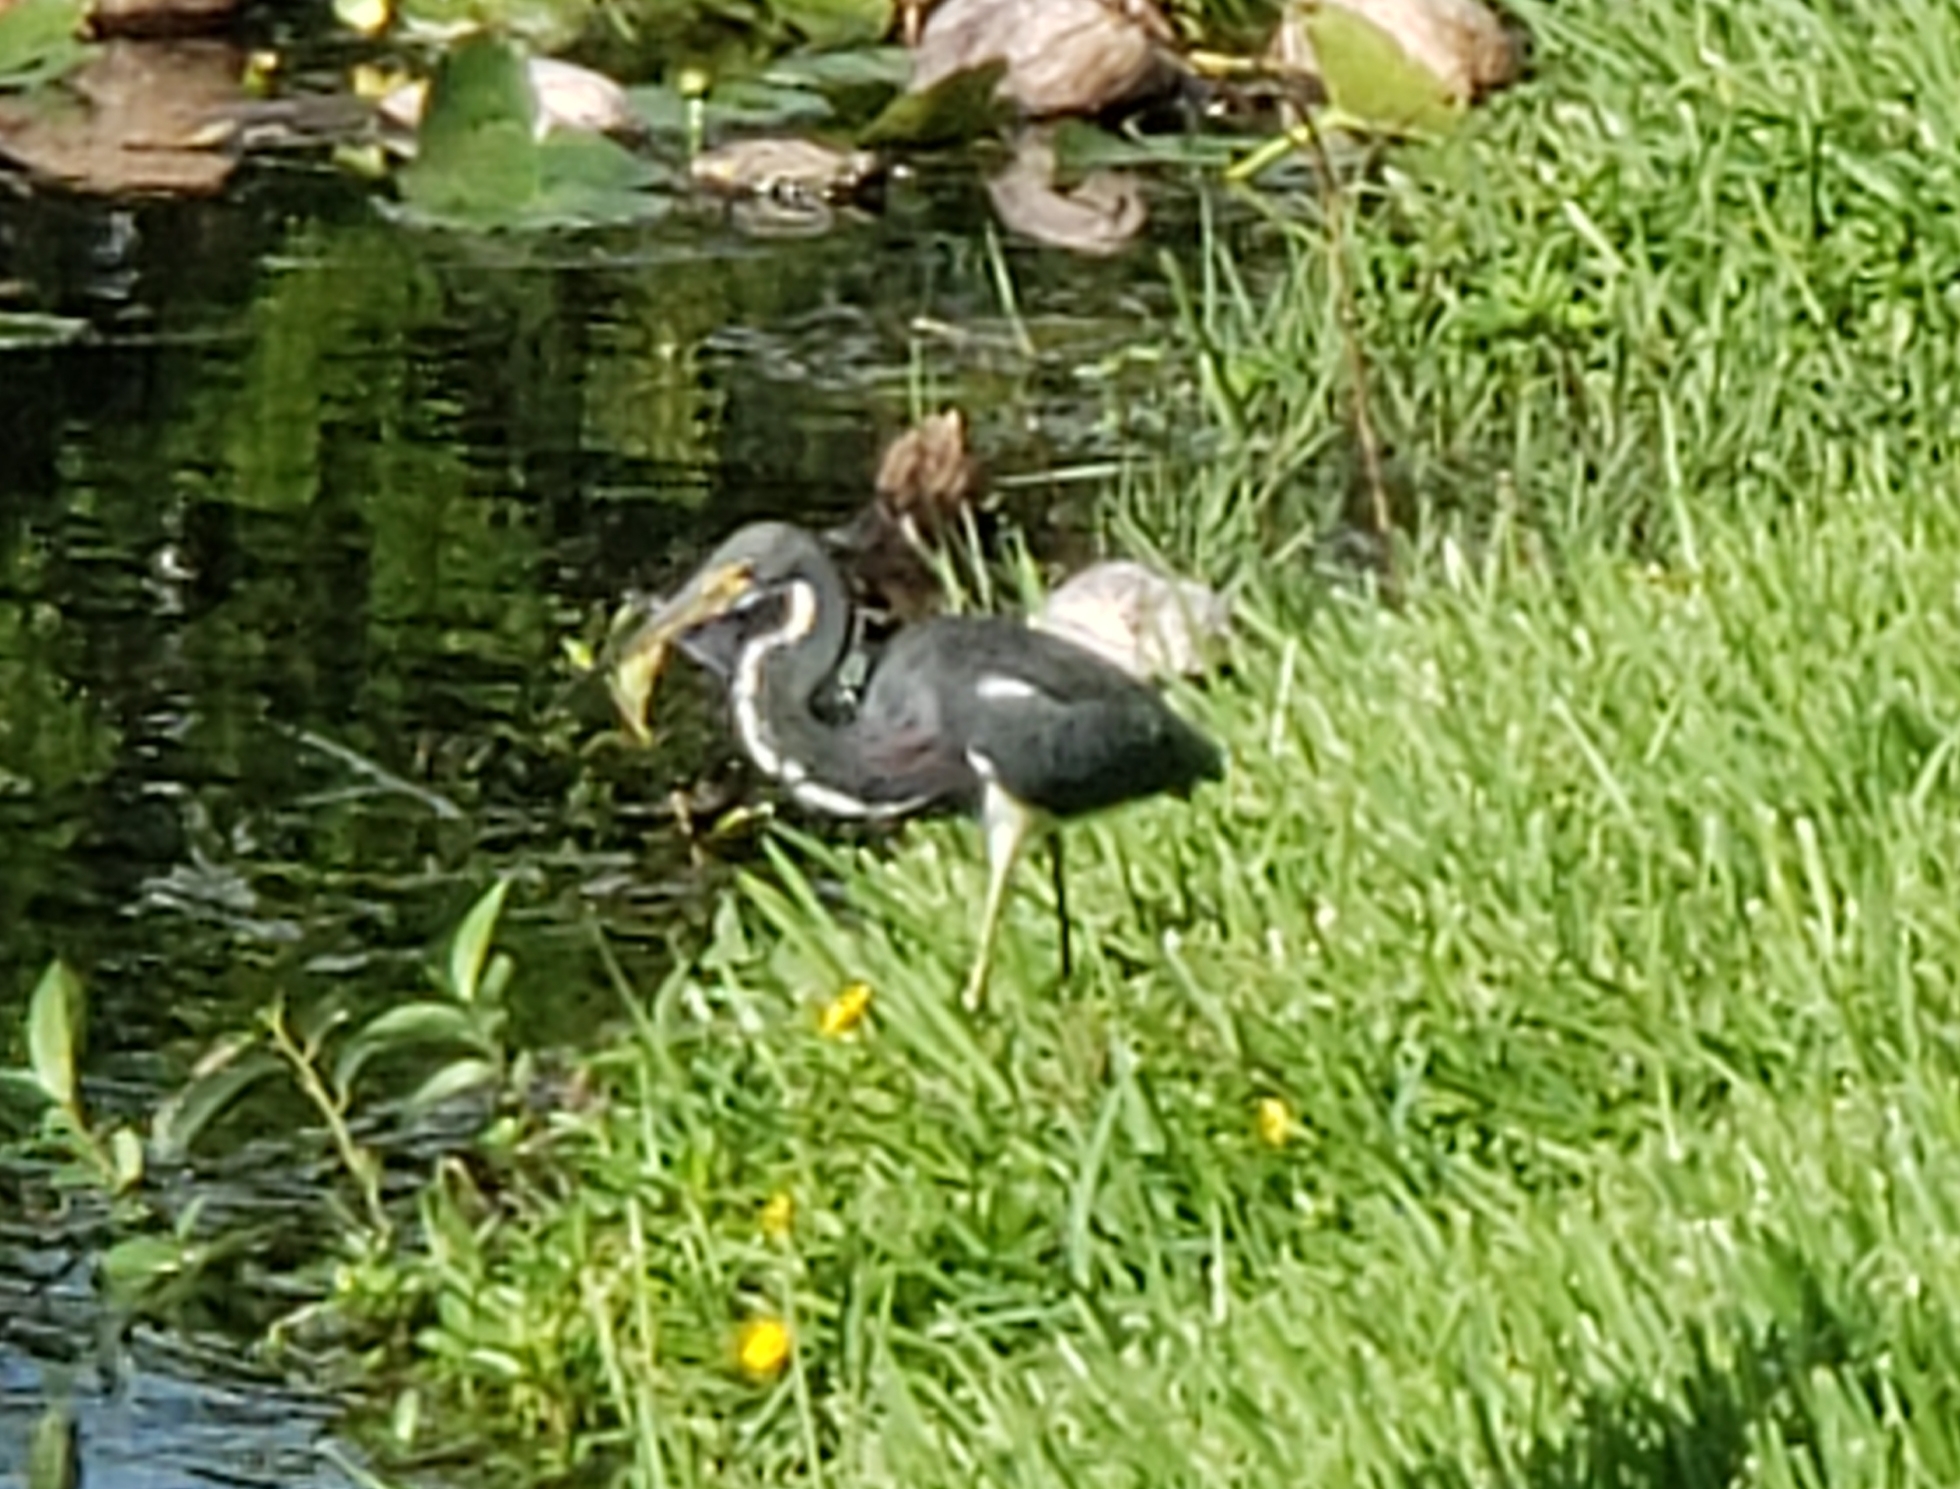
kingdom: Animalia
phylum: Chordata
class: Aves
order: Pelecaniformes
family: Ardeidae
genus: Egretta
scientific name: Egretta tricolor
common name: Tricolored heron
